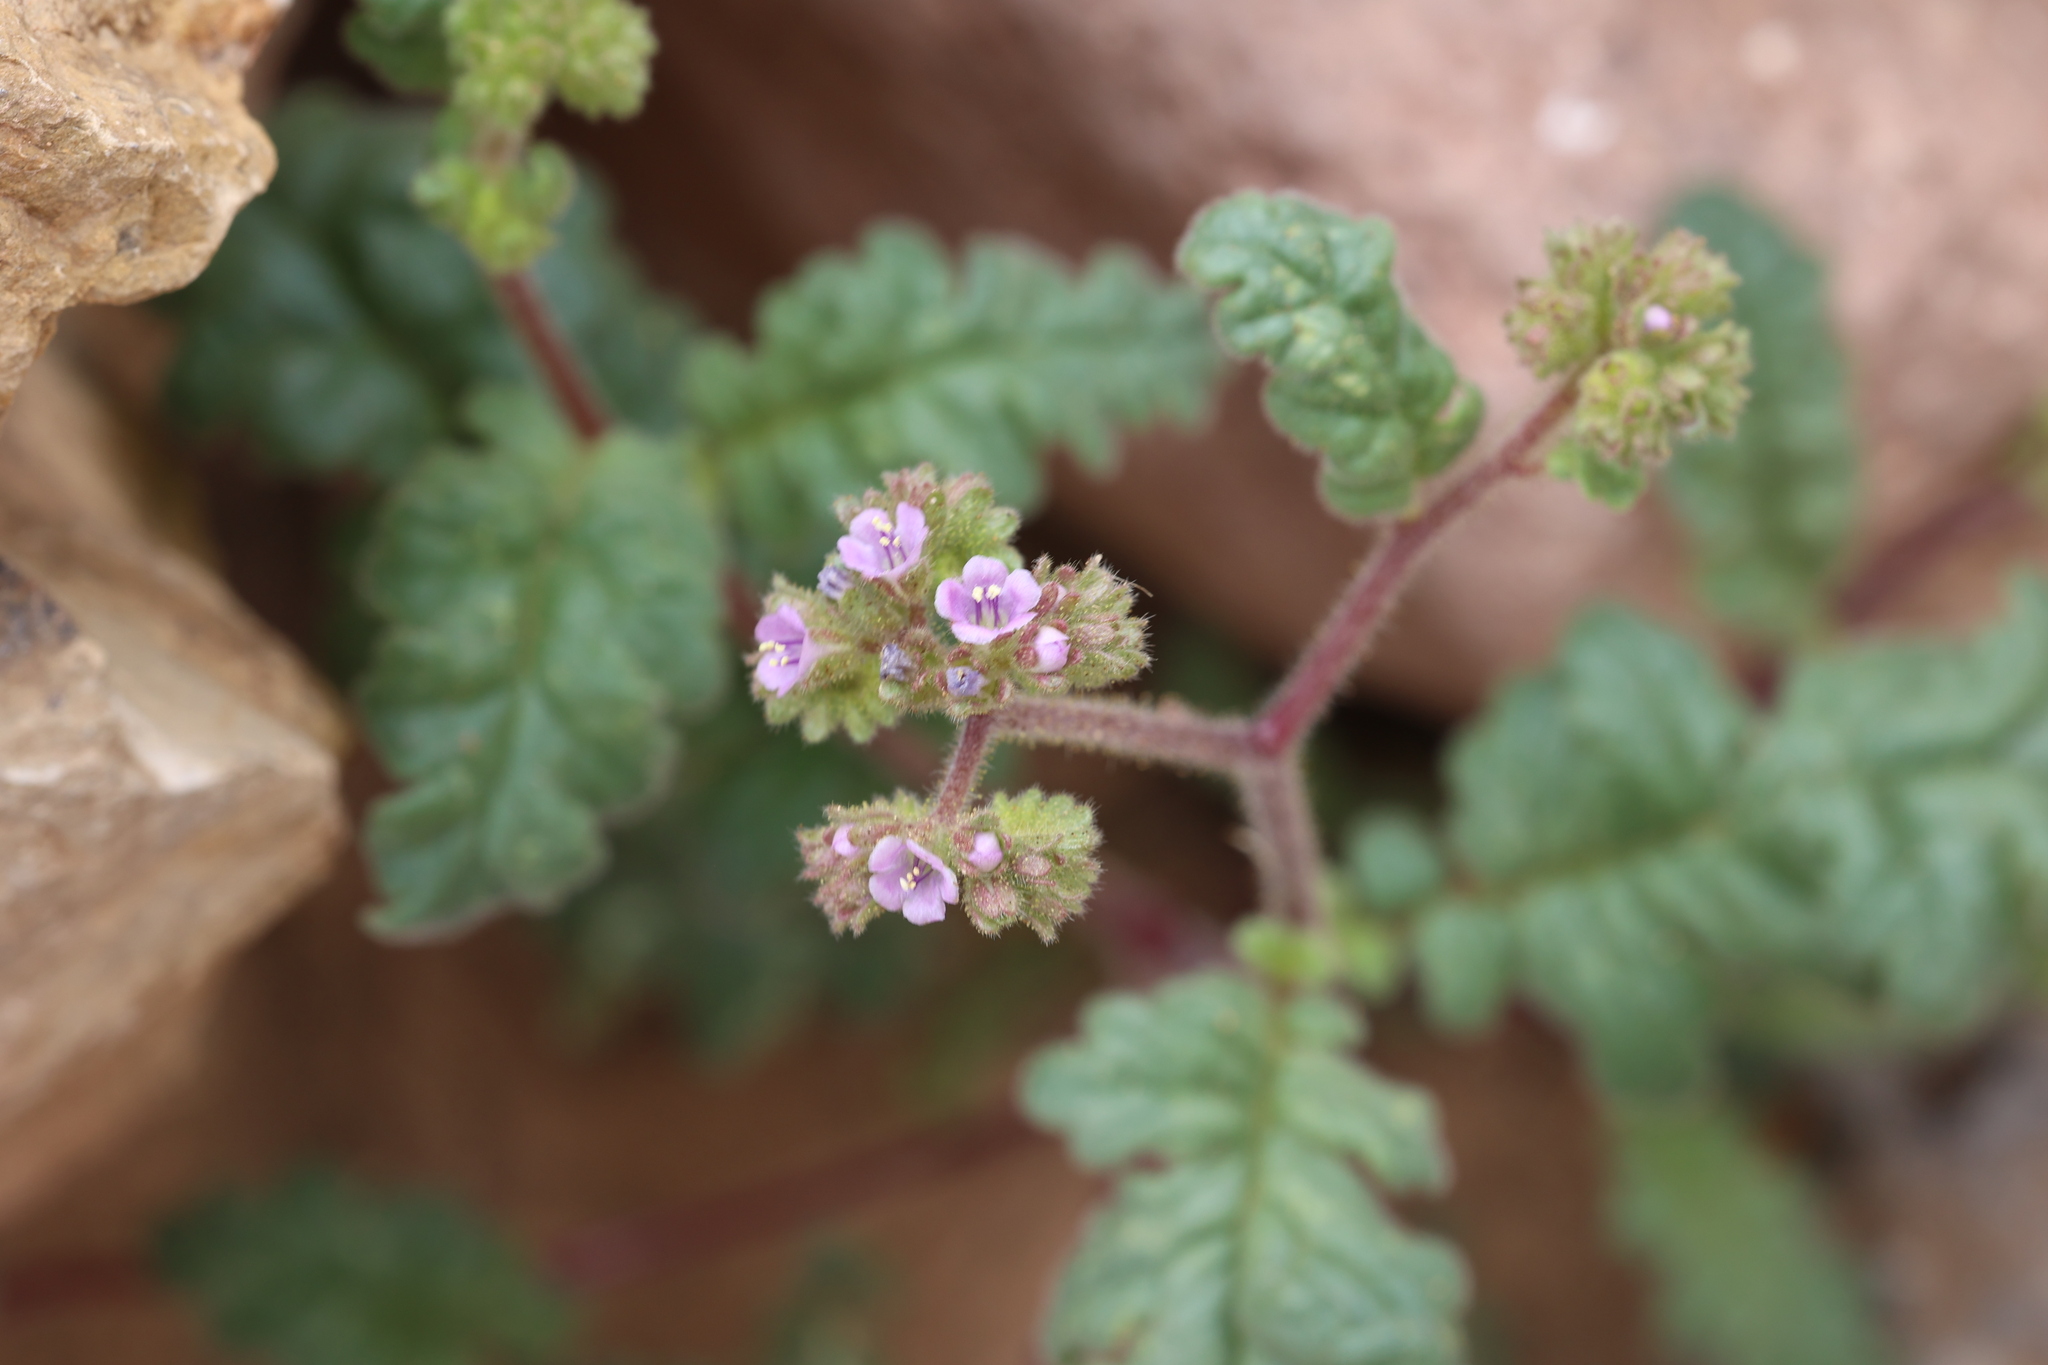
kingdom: Plantae
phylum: Tracheophyta
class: Magnoliopsida
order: Boraginales
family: Hydrophyllaceae
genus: Phacelia
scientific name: Phacelia coerulea
